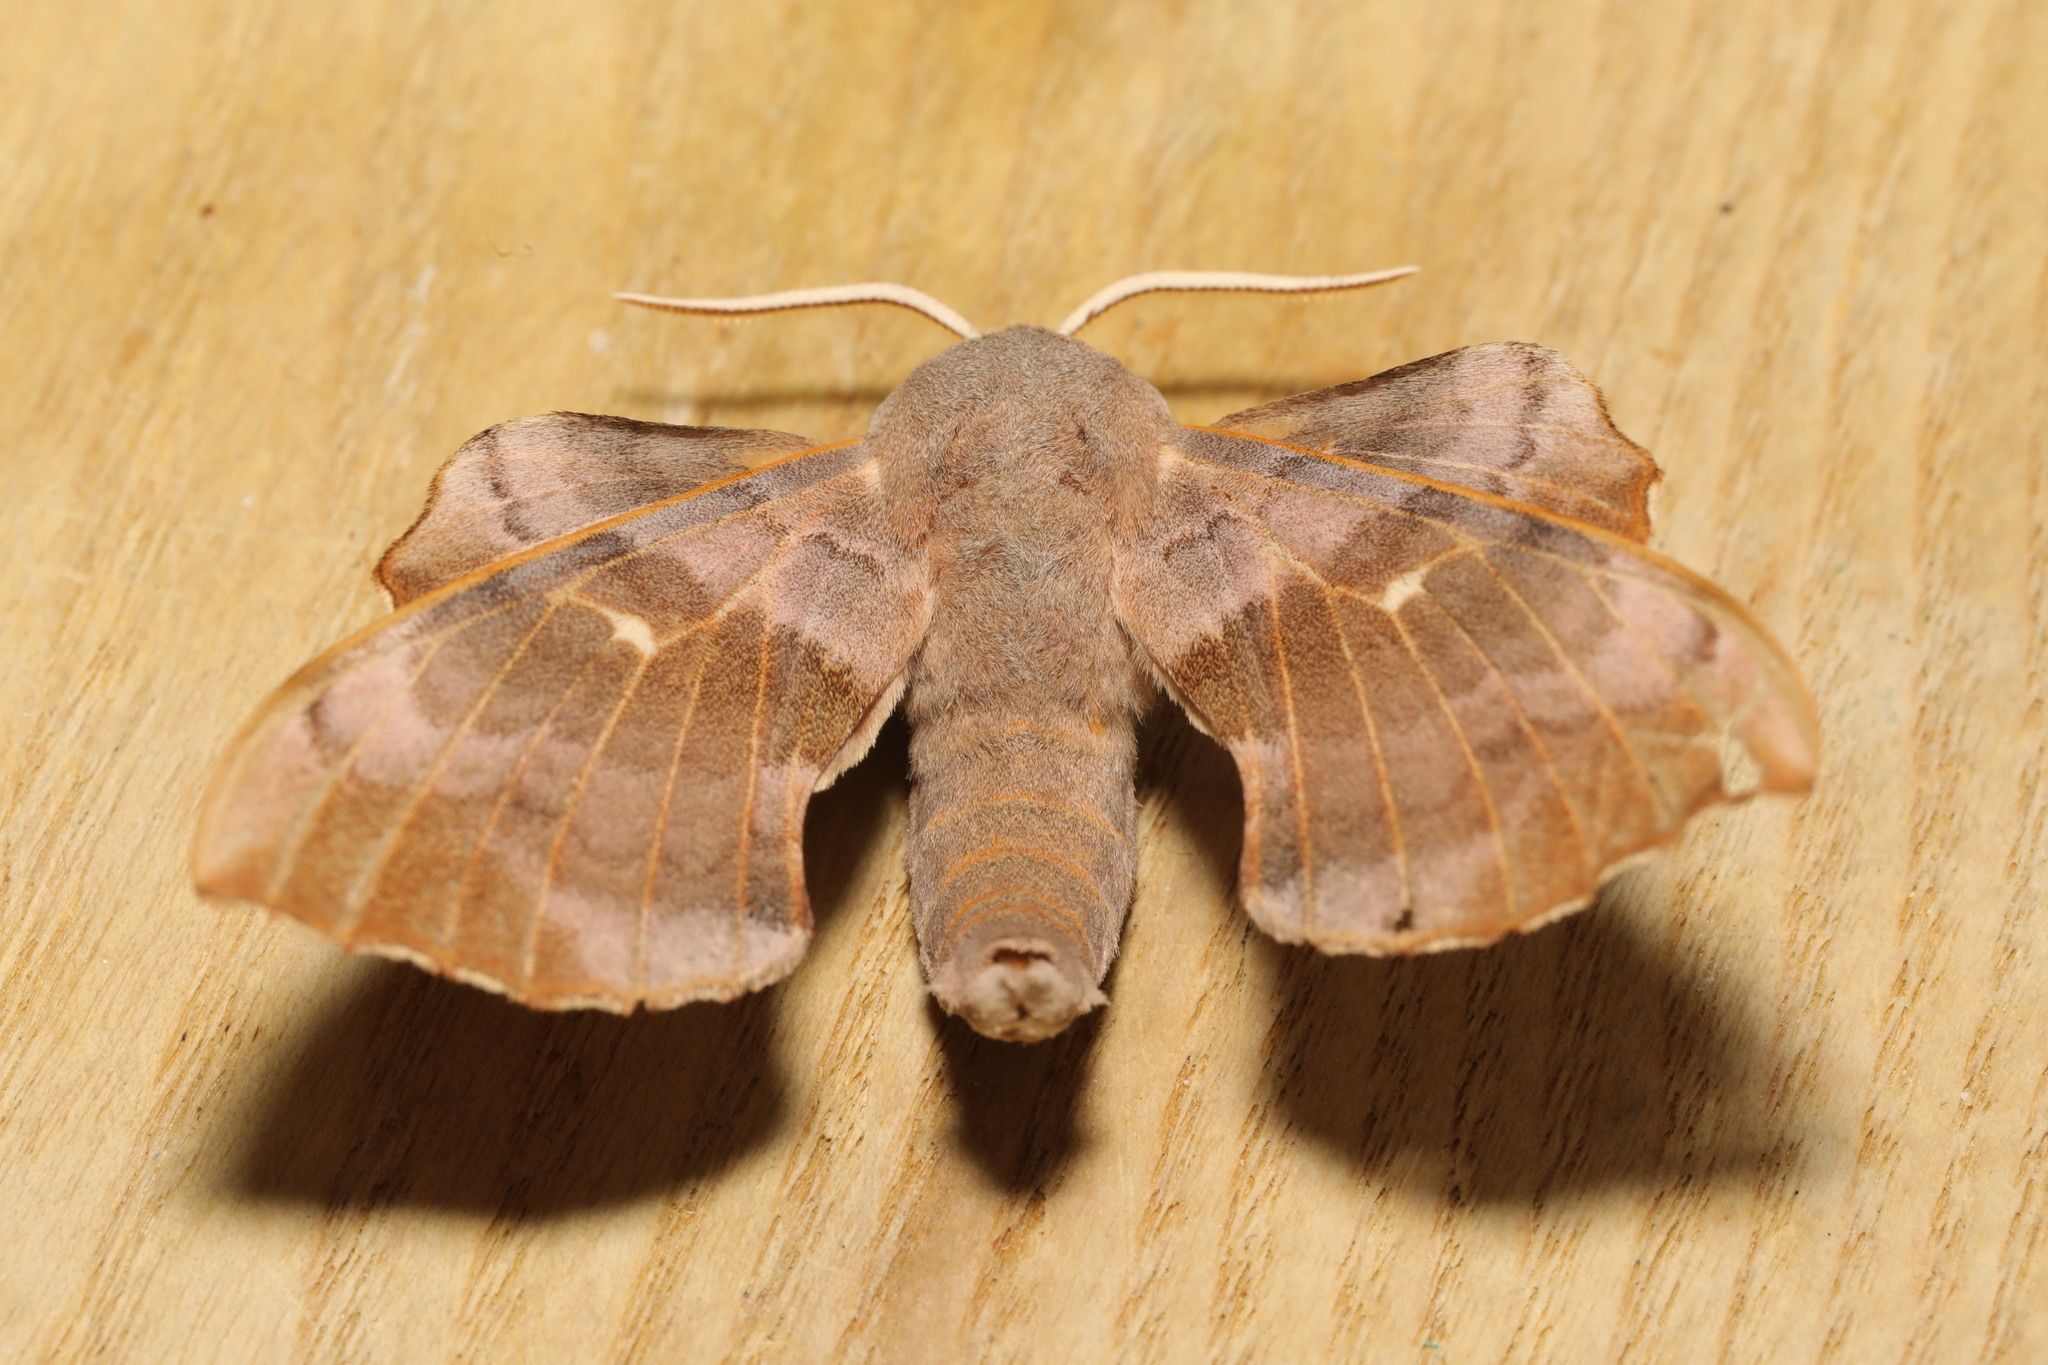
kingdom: Animalia
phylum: Arthropoda
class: Insecta
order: Lepidoptera
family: Sphingidae
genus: Laothoe
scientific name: Laothoe populi
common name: Poplar hawk-moth
